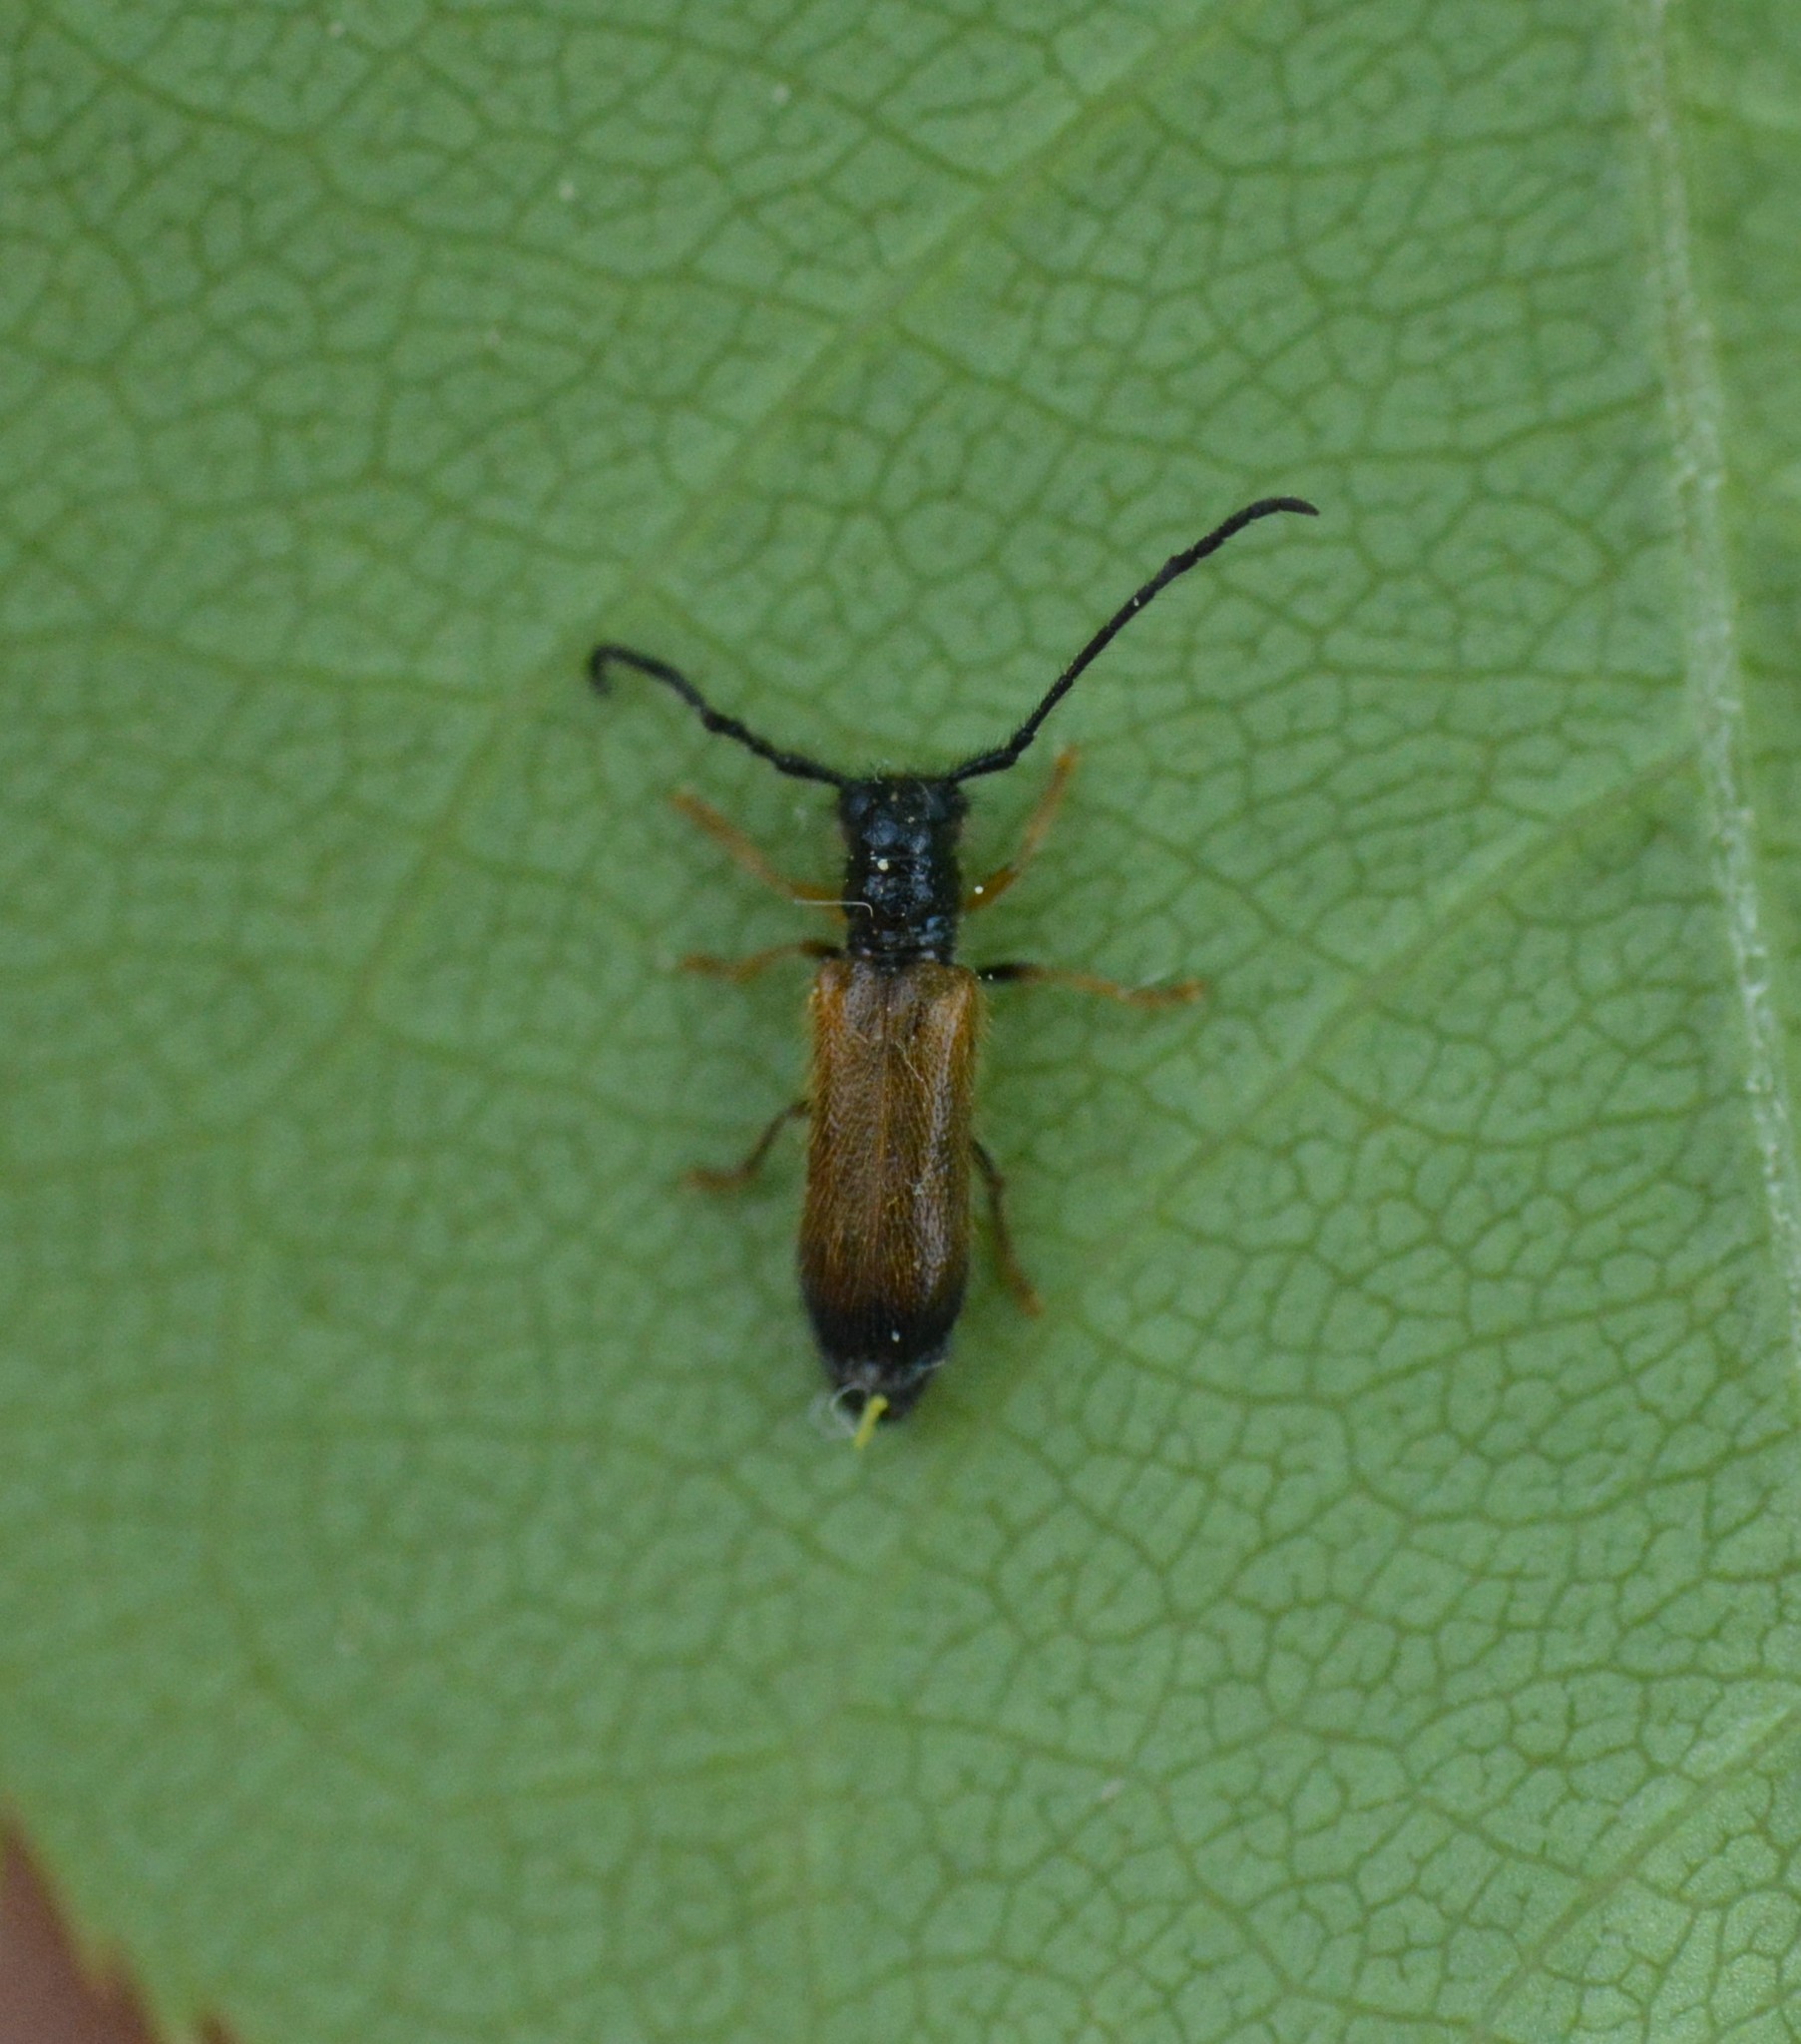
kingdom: Animalia
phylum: Arthropoda
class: Insecta
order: Coleoptera
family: Cerambycidae
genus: Tetrops
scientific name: Tetrops praeustus
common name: Plum beetle
